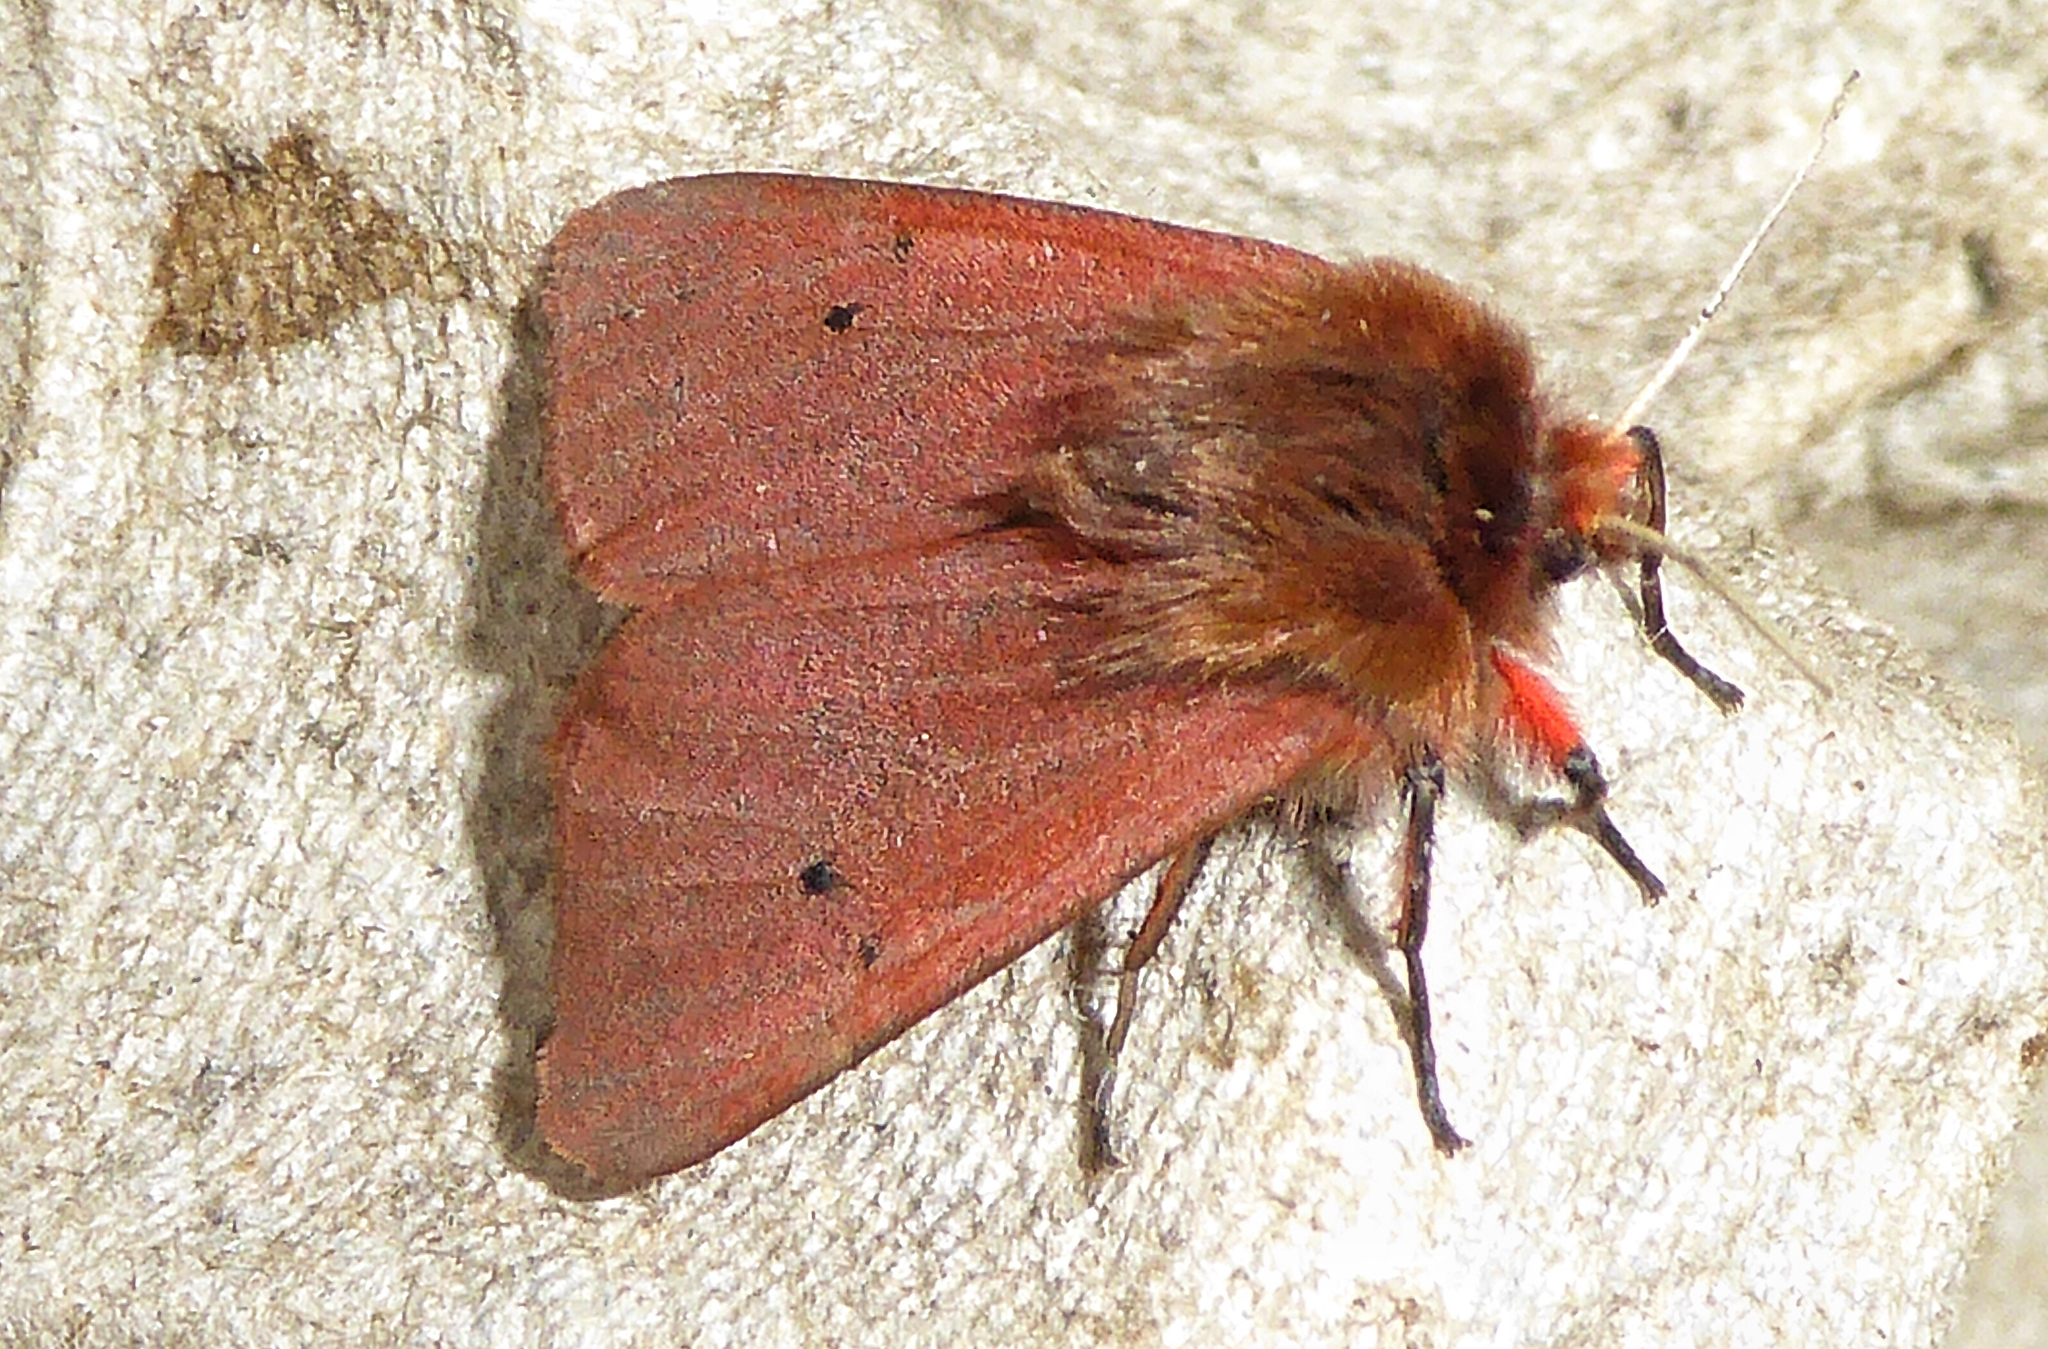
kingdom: Animalia
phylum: Arthropoda
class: Insecta
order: Lepidoptera
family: Erebidae
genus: Phragmatobia
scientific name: Phragmatobia fuliginosa
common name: Ruby tiger
